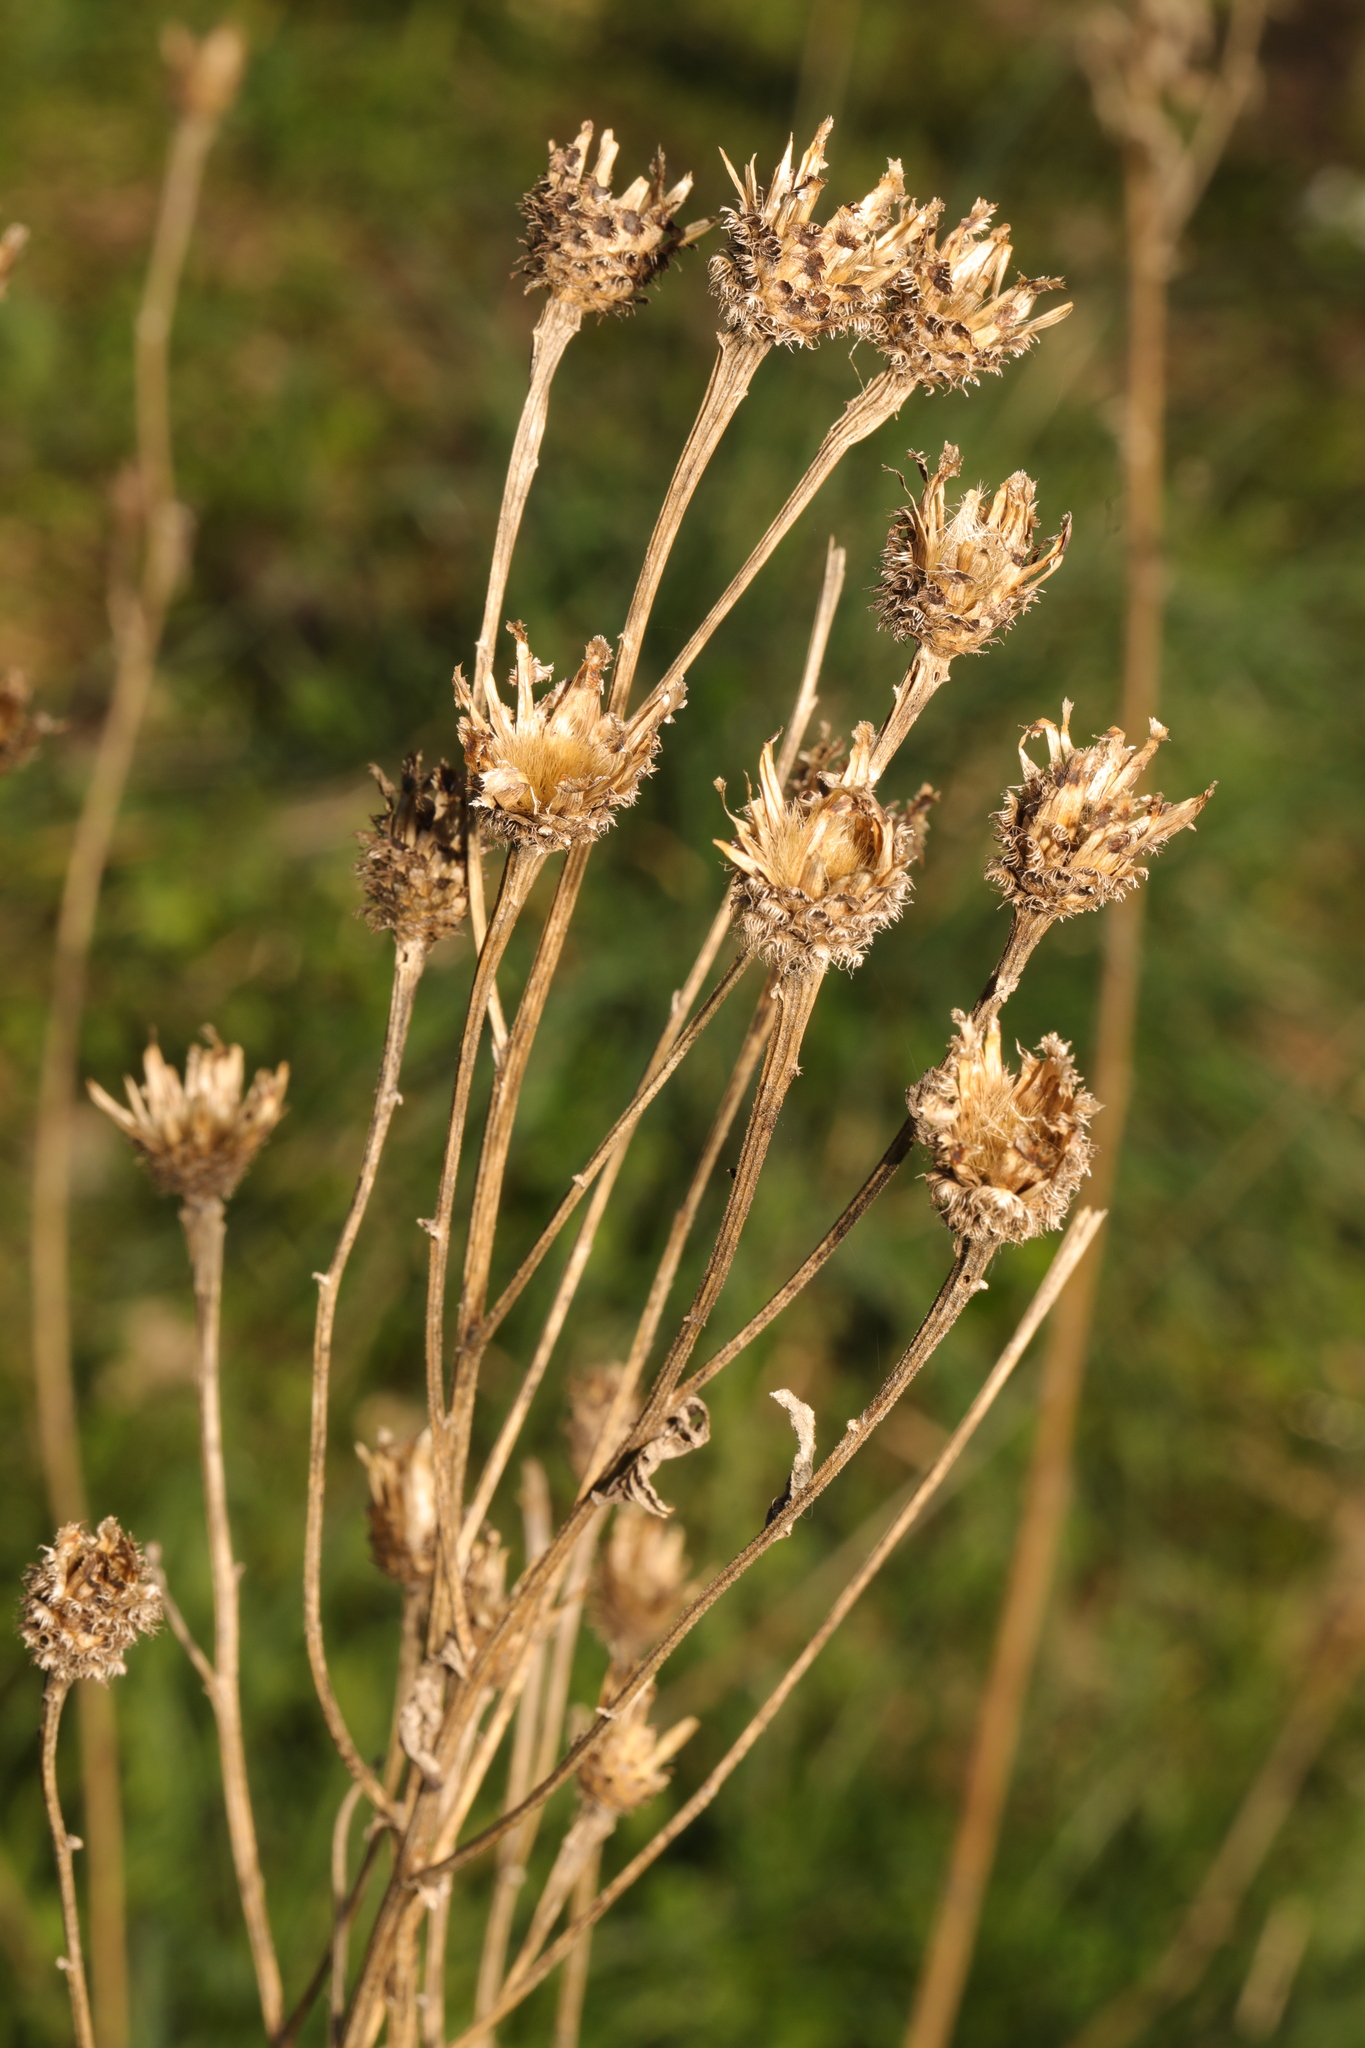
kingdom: Plantae
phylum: Tracheophyta
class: Magnoliopsida
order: Asterales
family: Asteraceae
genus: Centaurea
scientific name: Centaurea nigra
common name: Lesser knapweed
